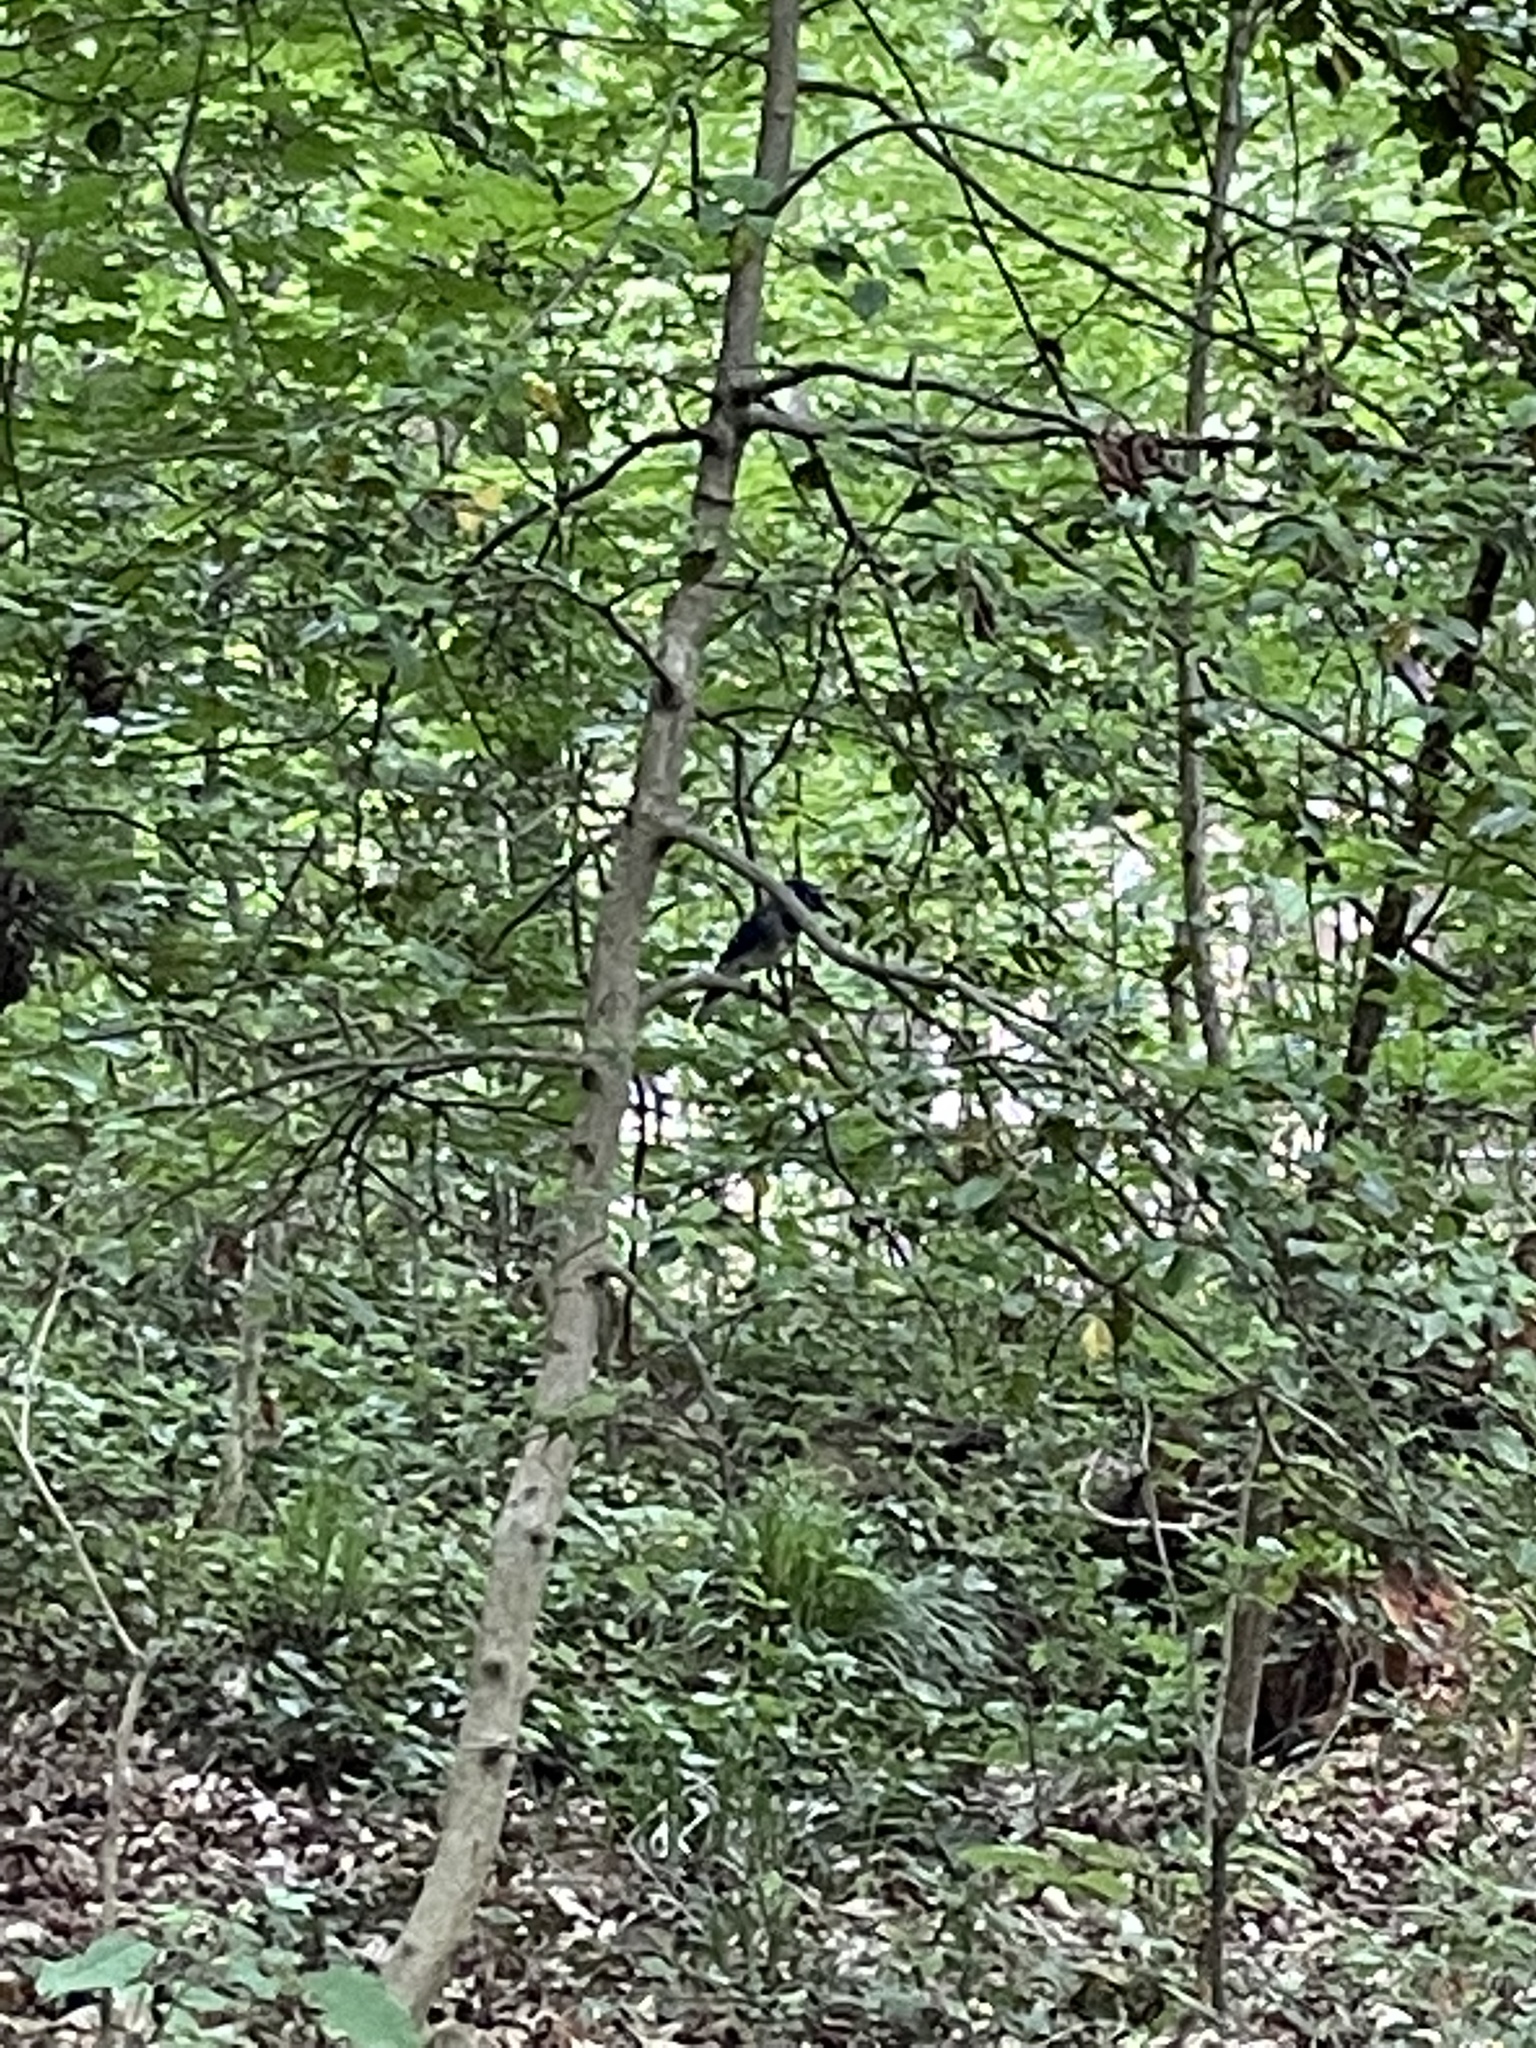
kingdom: Animalia
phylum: Chordata
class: Aves
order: Passeriformes
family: Corvidae
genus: Cyanocitta
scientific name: Cyanocitta cristata
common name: Blue jay
